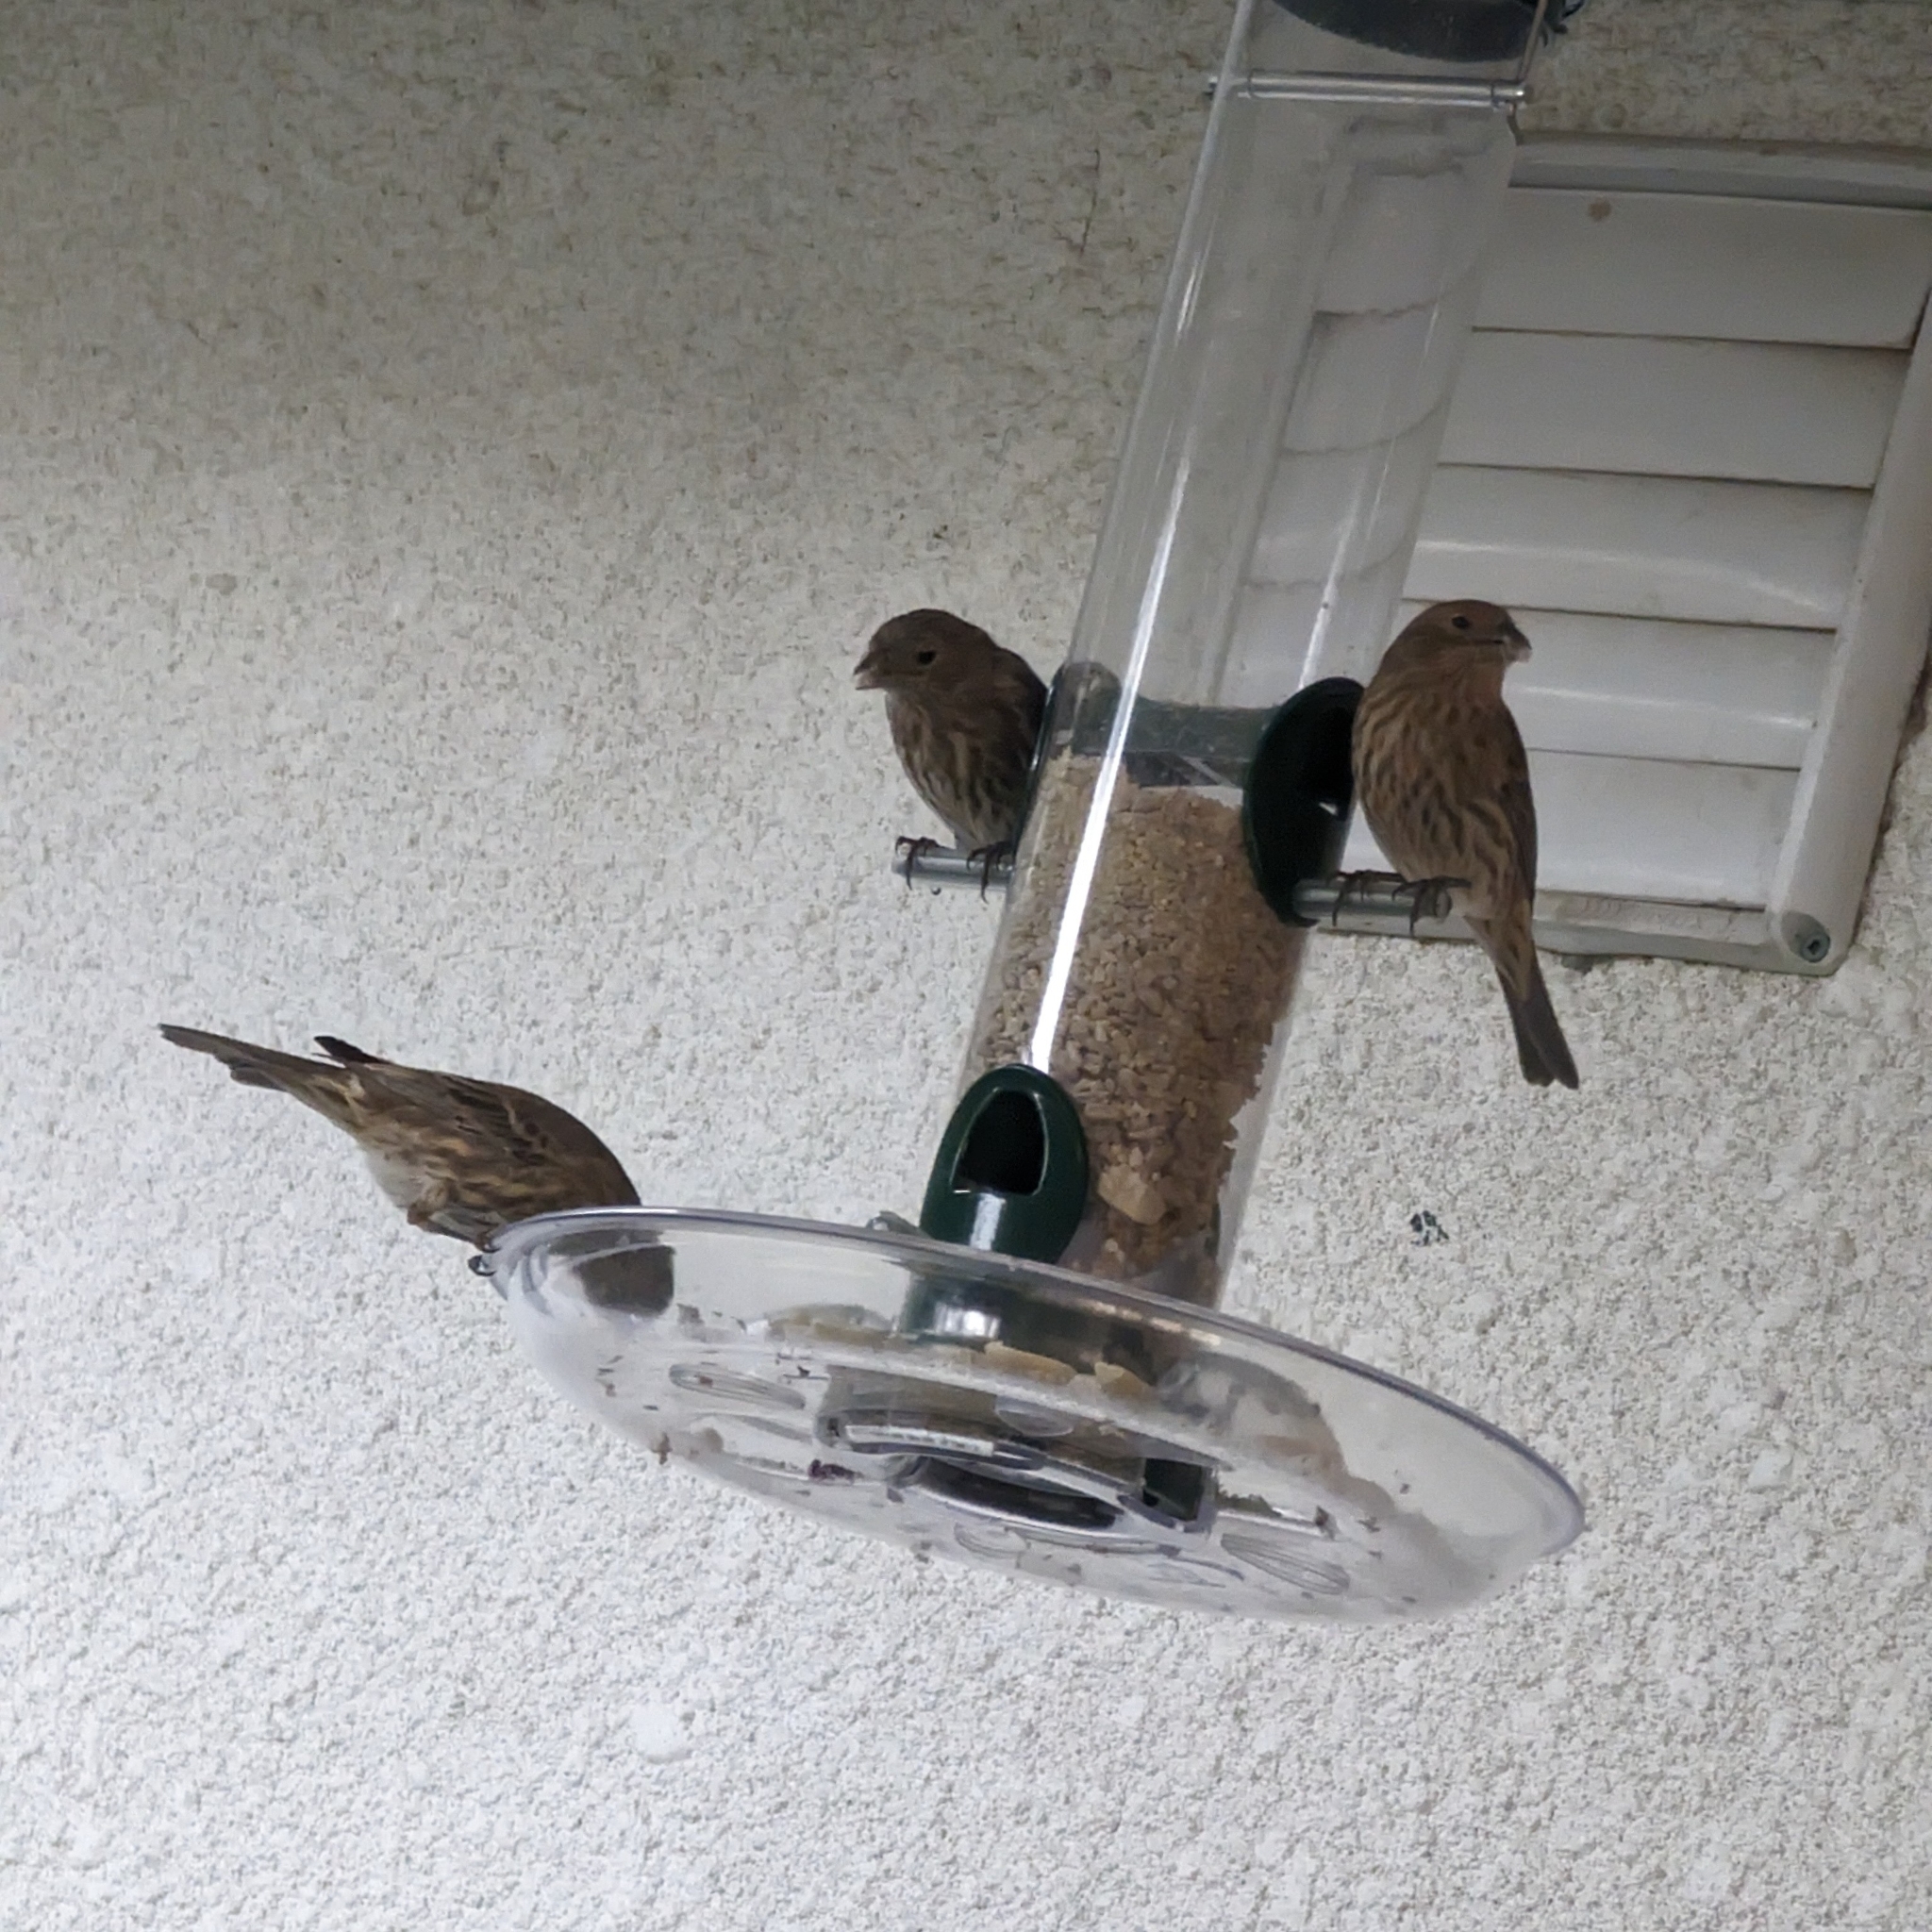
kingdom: Animalia
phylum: Chordata
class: Aves
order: Passeriformes
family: Fringillidae
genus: Haemorhous
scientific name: Haemorhous mexicanus
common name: House finch
